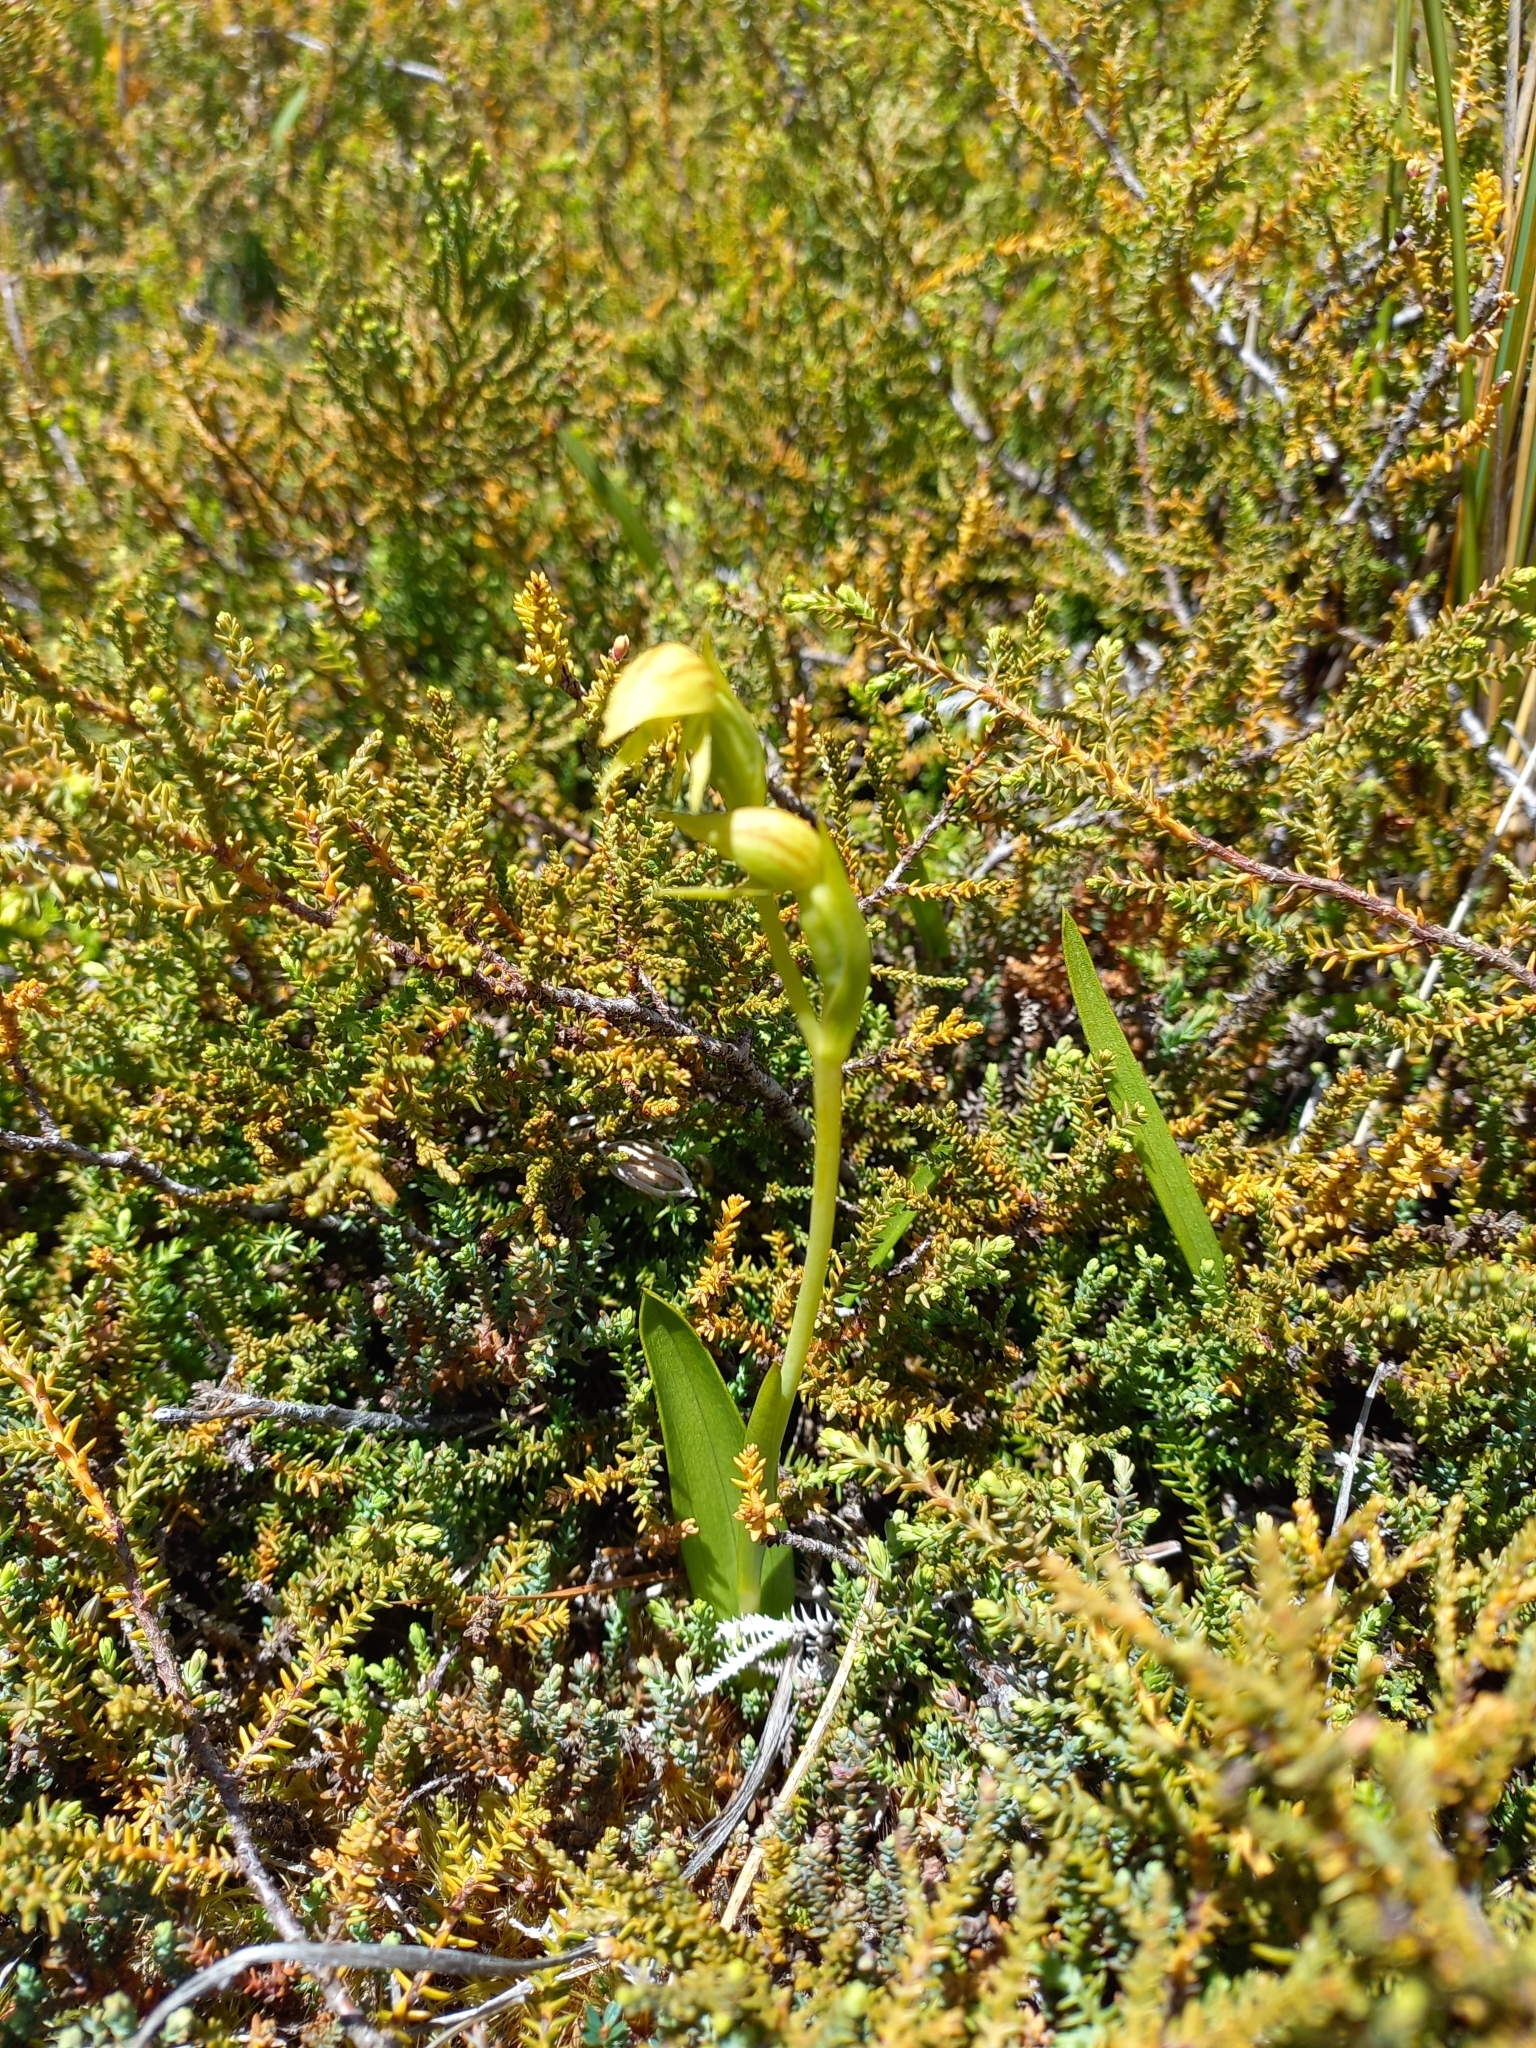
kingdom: Plantae
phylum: Tracheophyta
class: Liliopsida
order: Asparagales
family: Orchidaceae
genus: Waireia
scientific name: Waireia stenopetala
